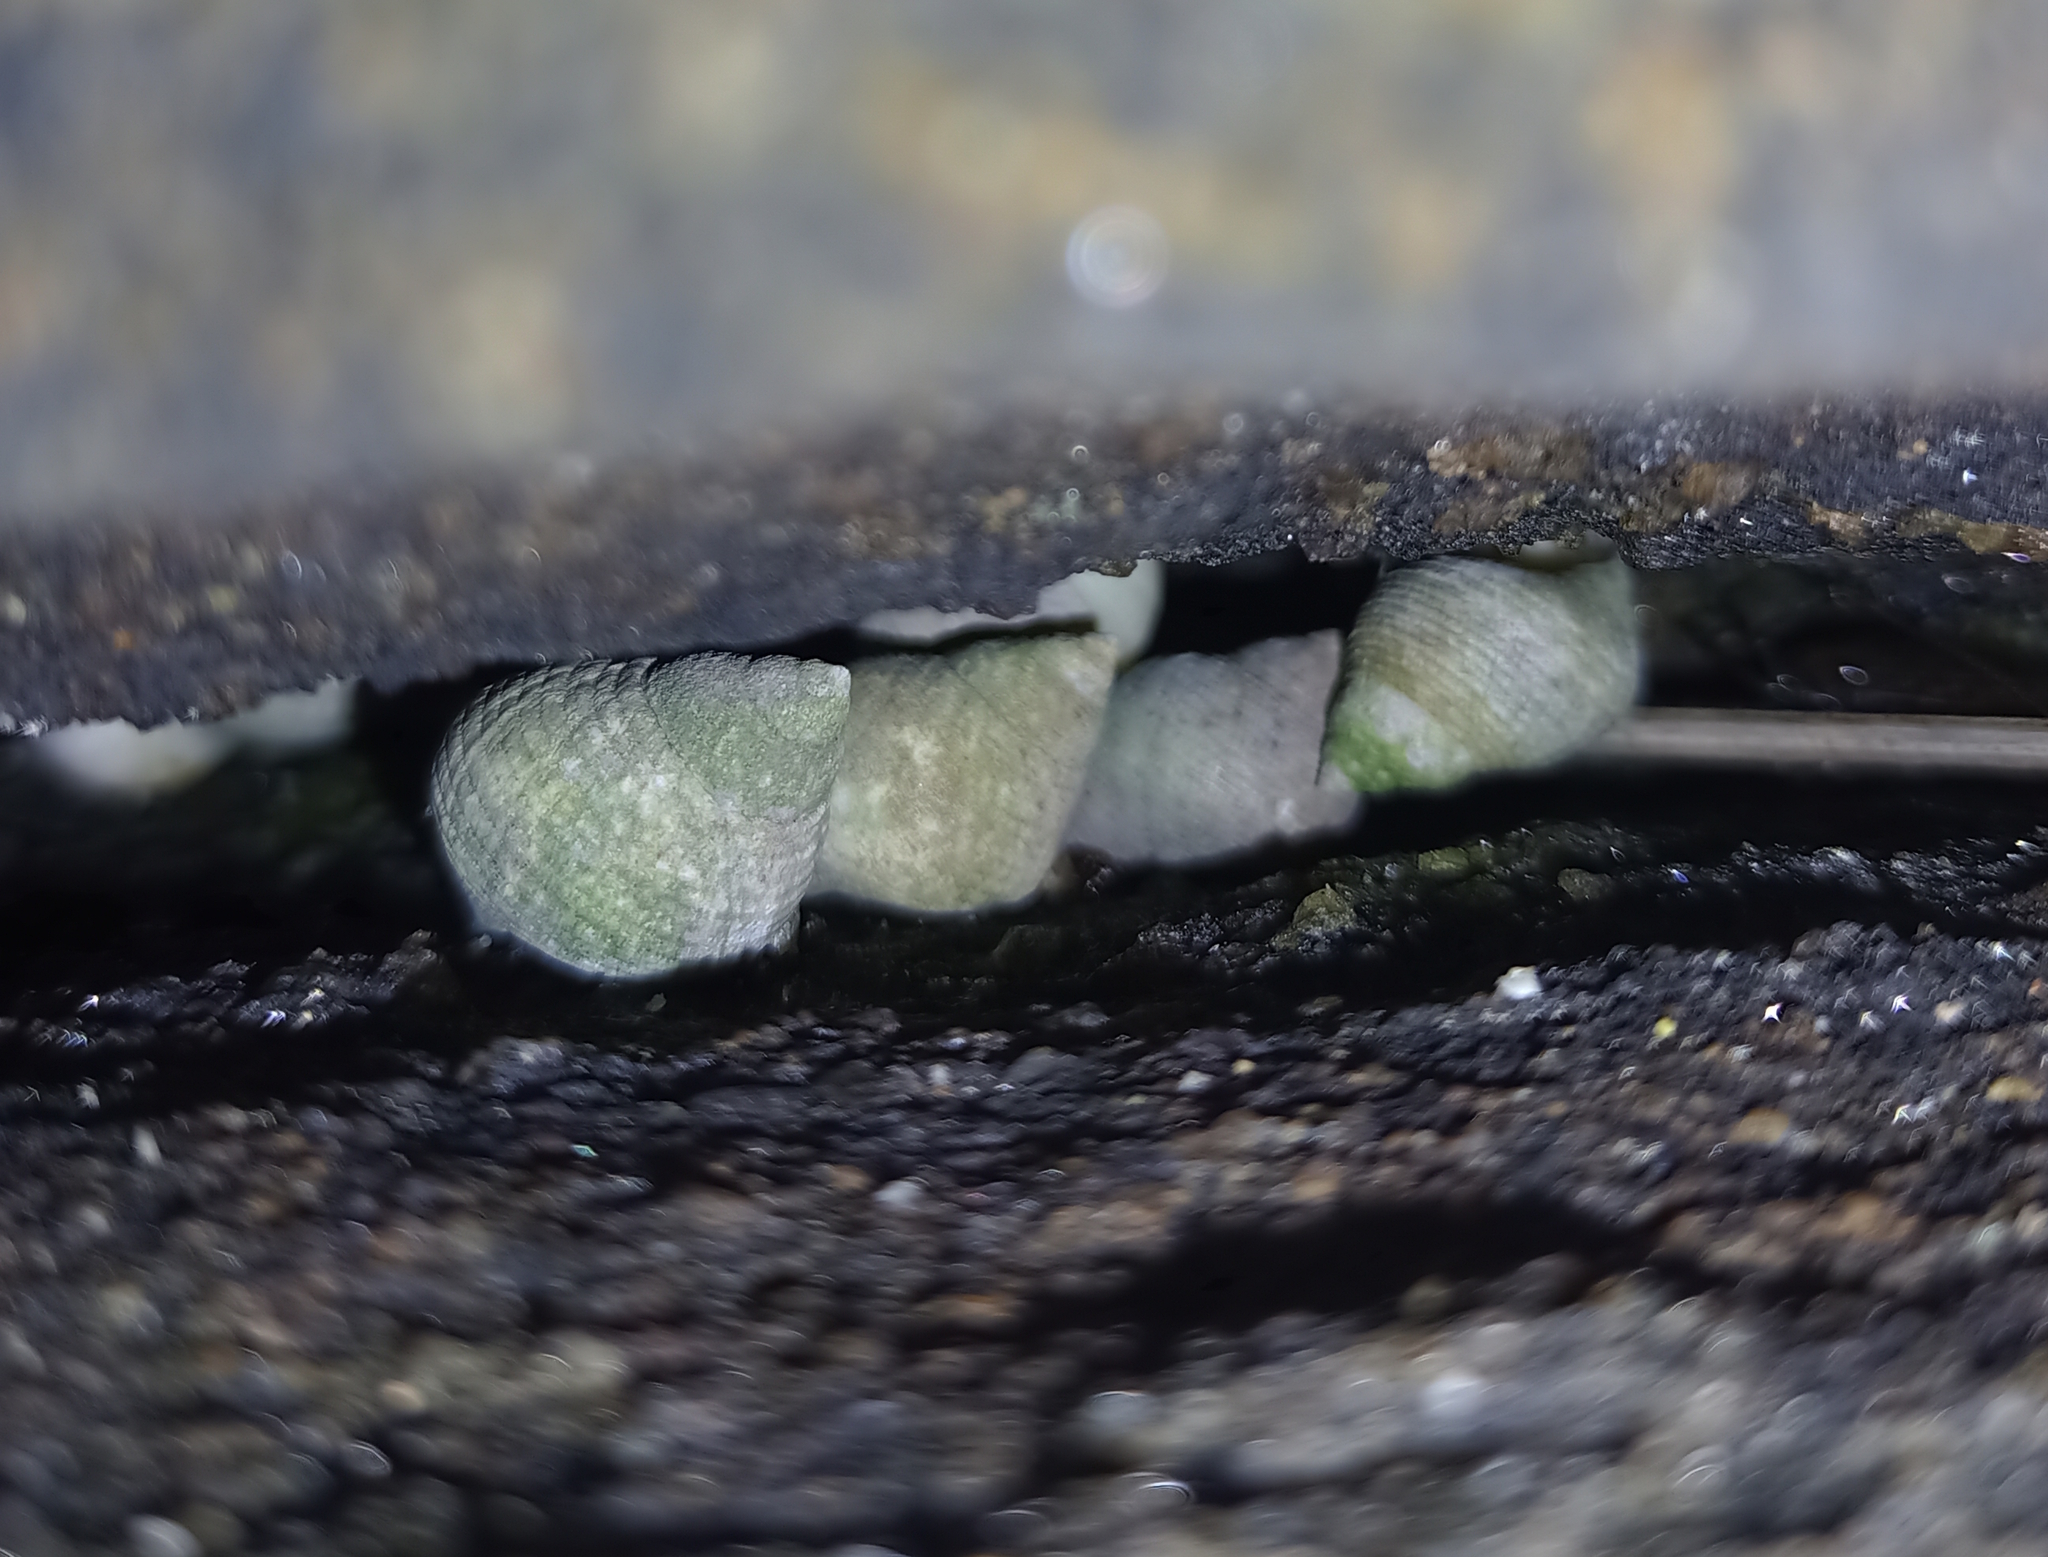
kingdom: Animalia
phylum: Mollusca
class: Gastropoda
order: Littorinimorpha
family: Littorinidae
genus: Littoraria
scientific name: Littoraria flava
